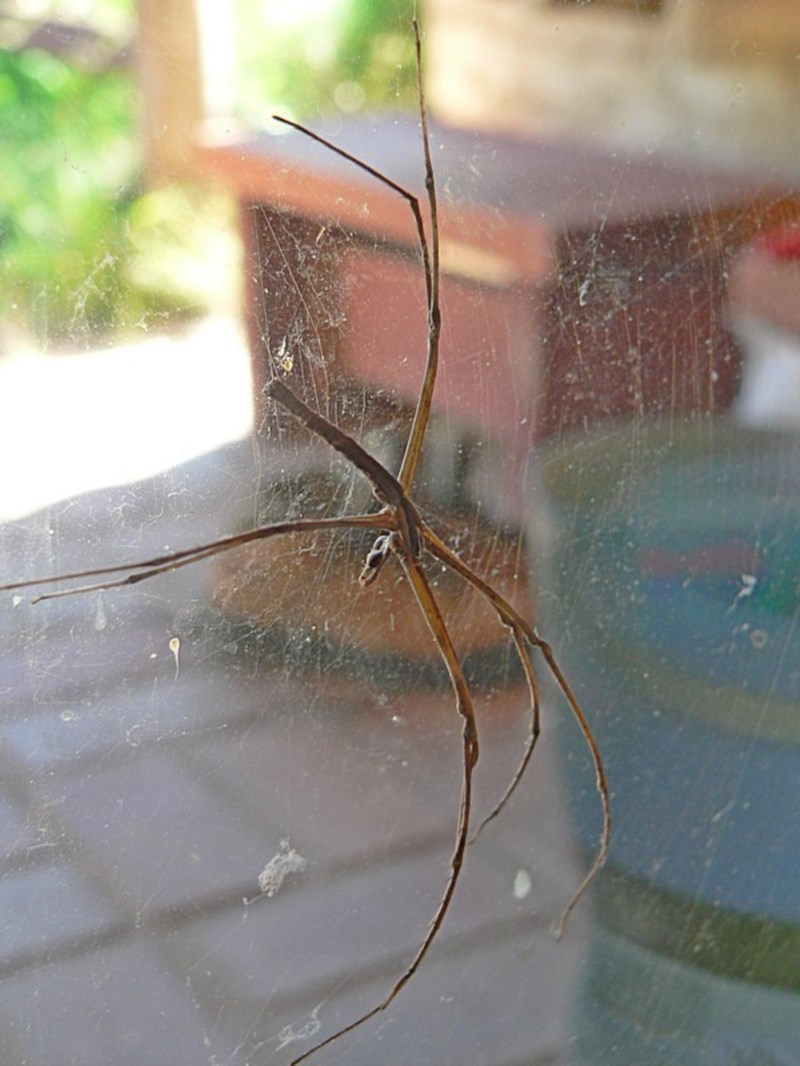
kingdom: Animalia
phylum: Arthropoda
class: Arachnida
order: Araneae
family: Deinopidae
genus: Deinopis
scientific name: Deinopis subrufa
